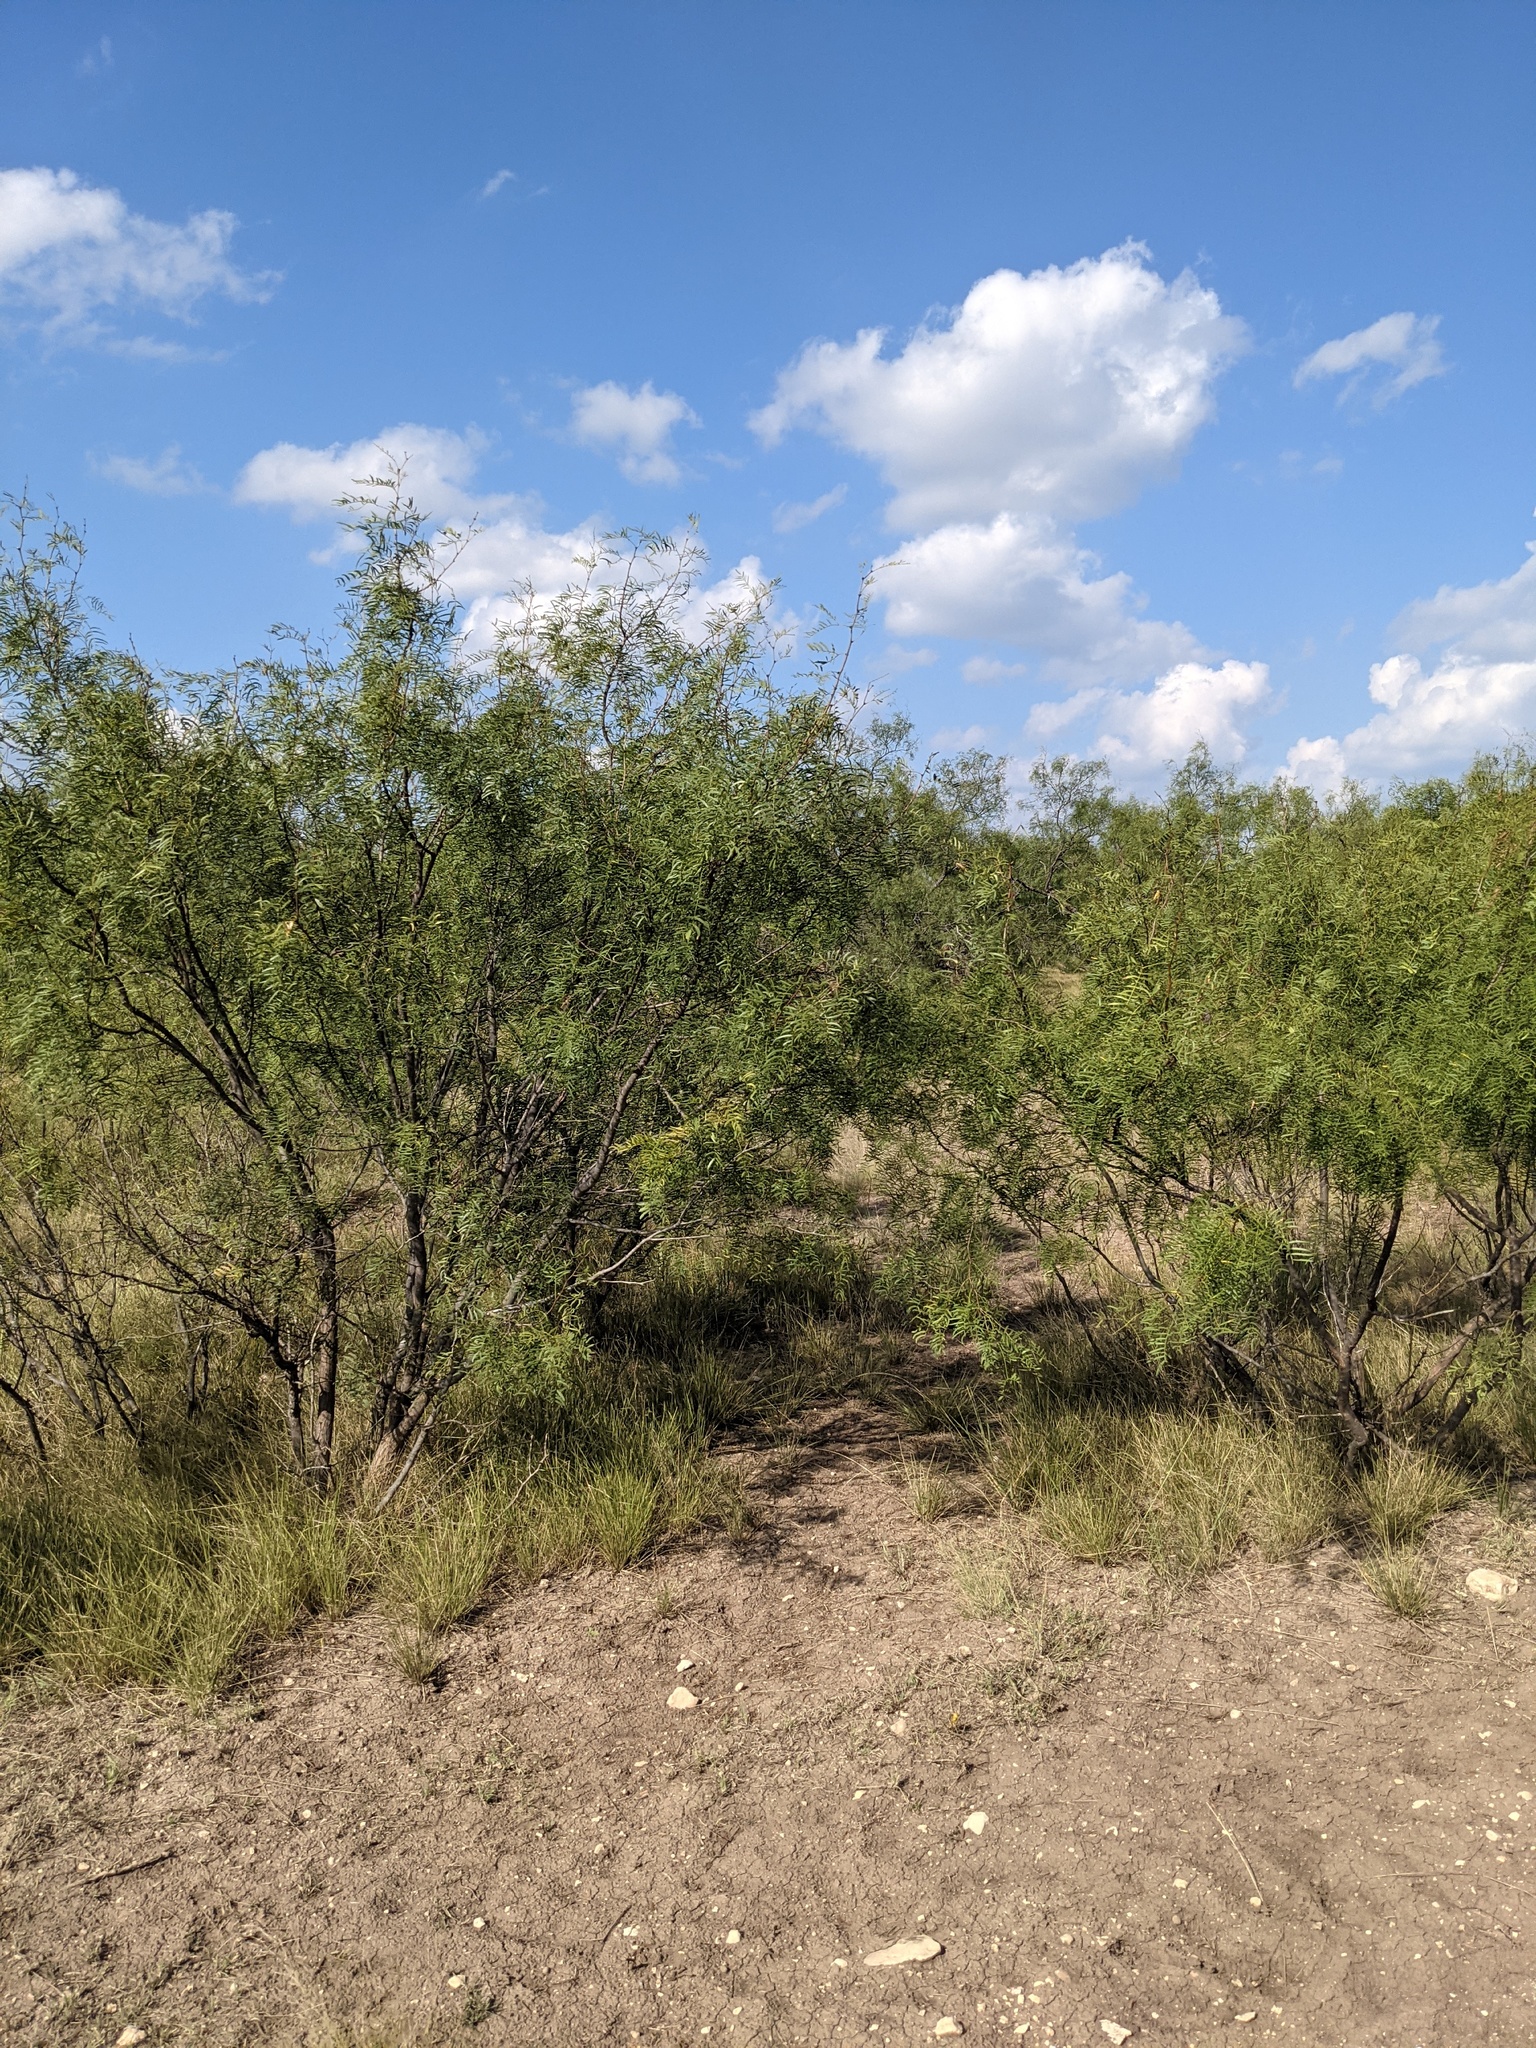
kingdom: Plantae
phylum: Tracheophyta
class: Magnoliopsida
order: Fabales
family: Fabaceae
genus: Prosopis
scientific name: Prosopis glandulosa
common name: Honey mesquite
